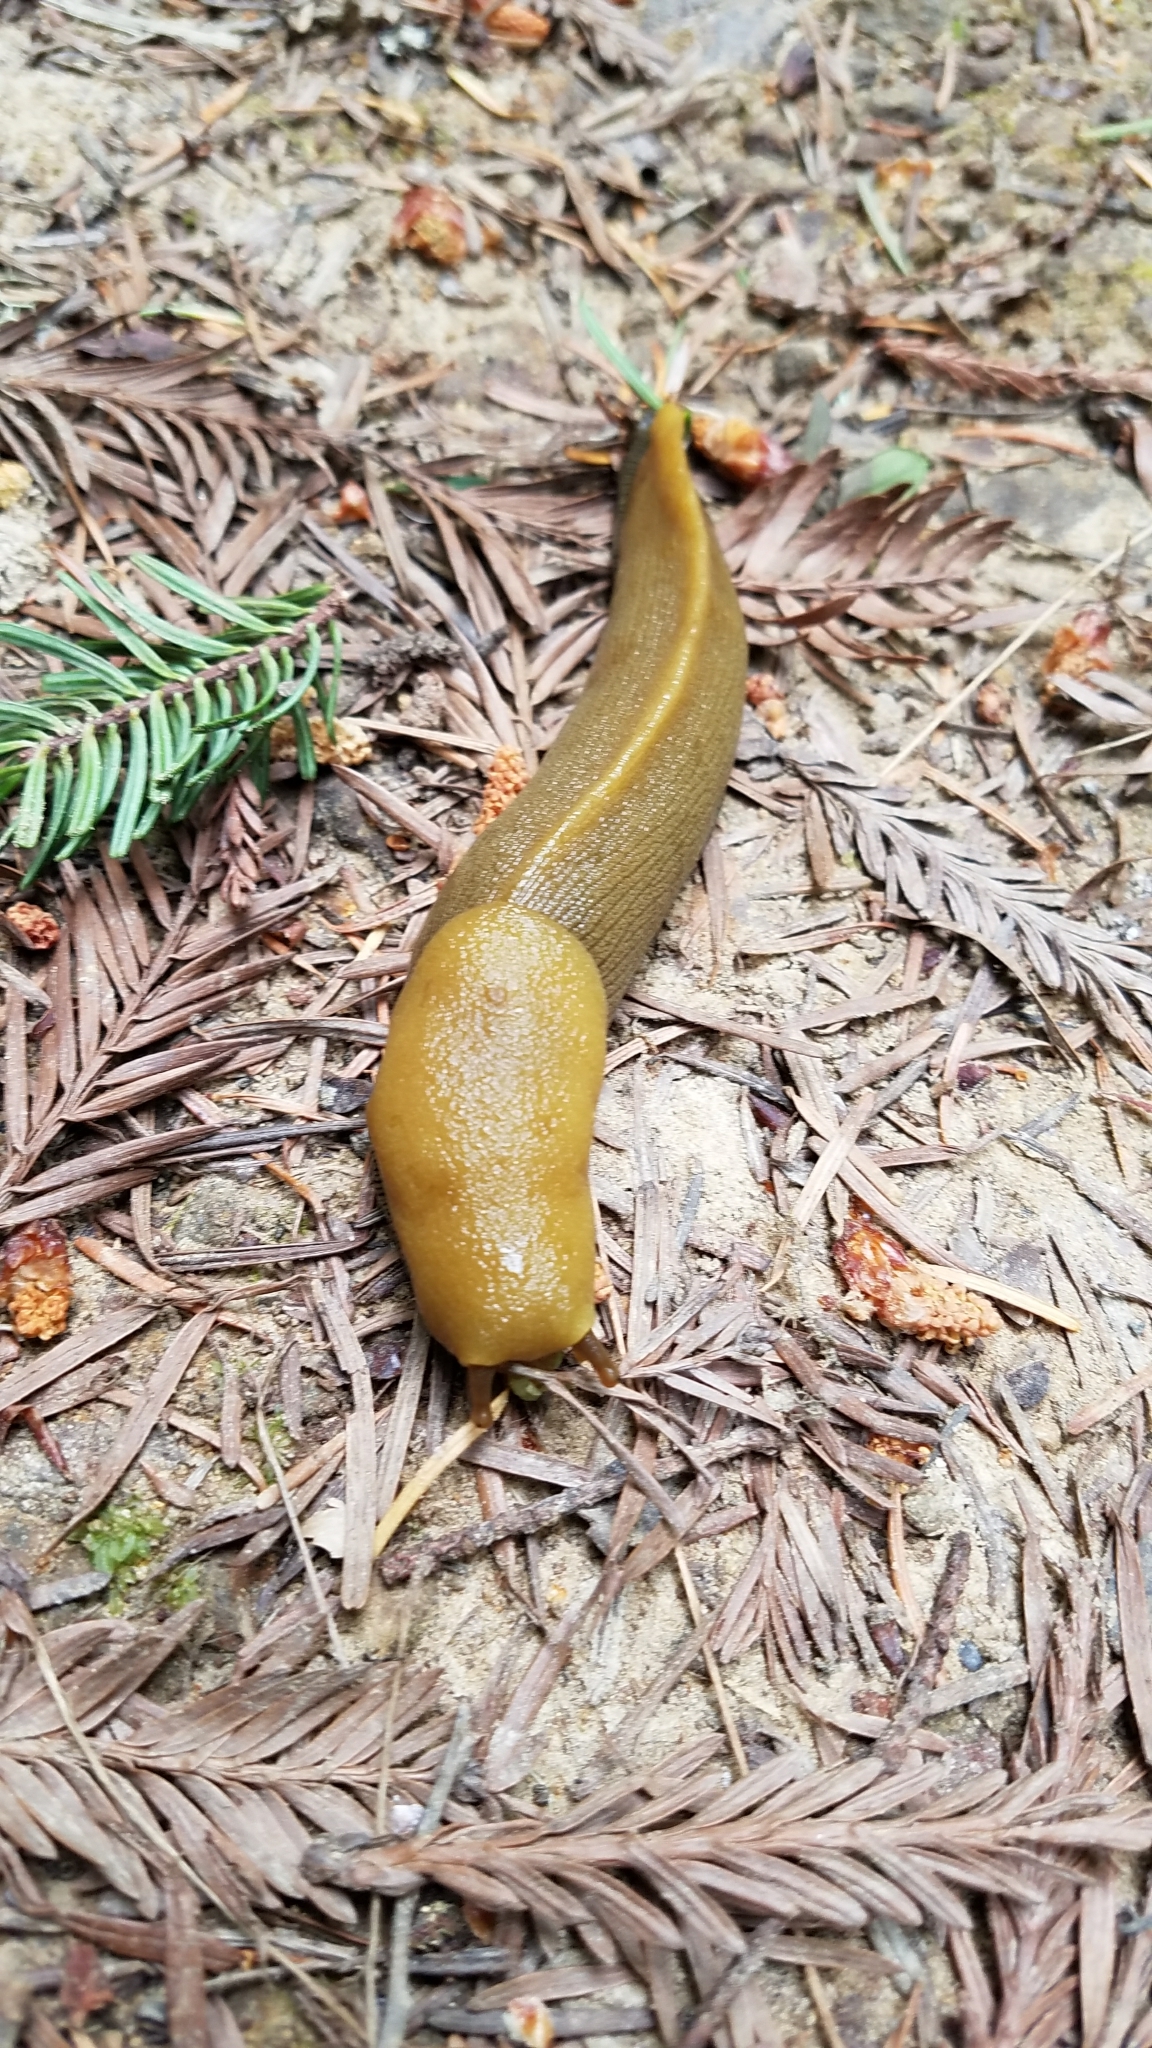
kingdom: Animalia
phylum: Mollusca
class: Gastropoda
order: Stylommatophora
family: Ariolimacidae
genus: Ariolimax
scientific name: Ariolimax buttoni
